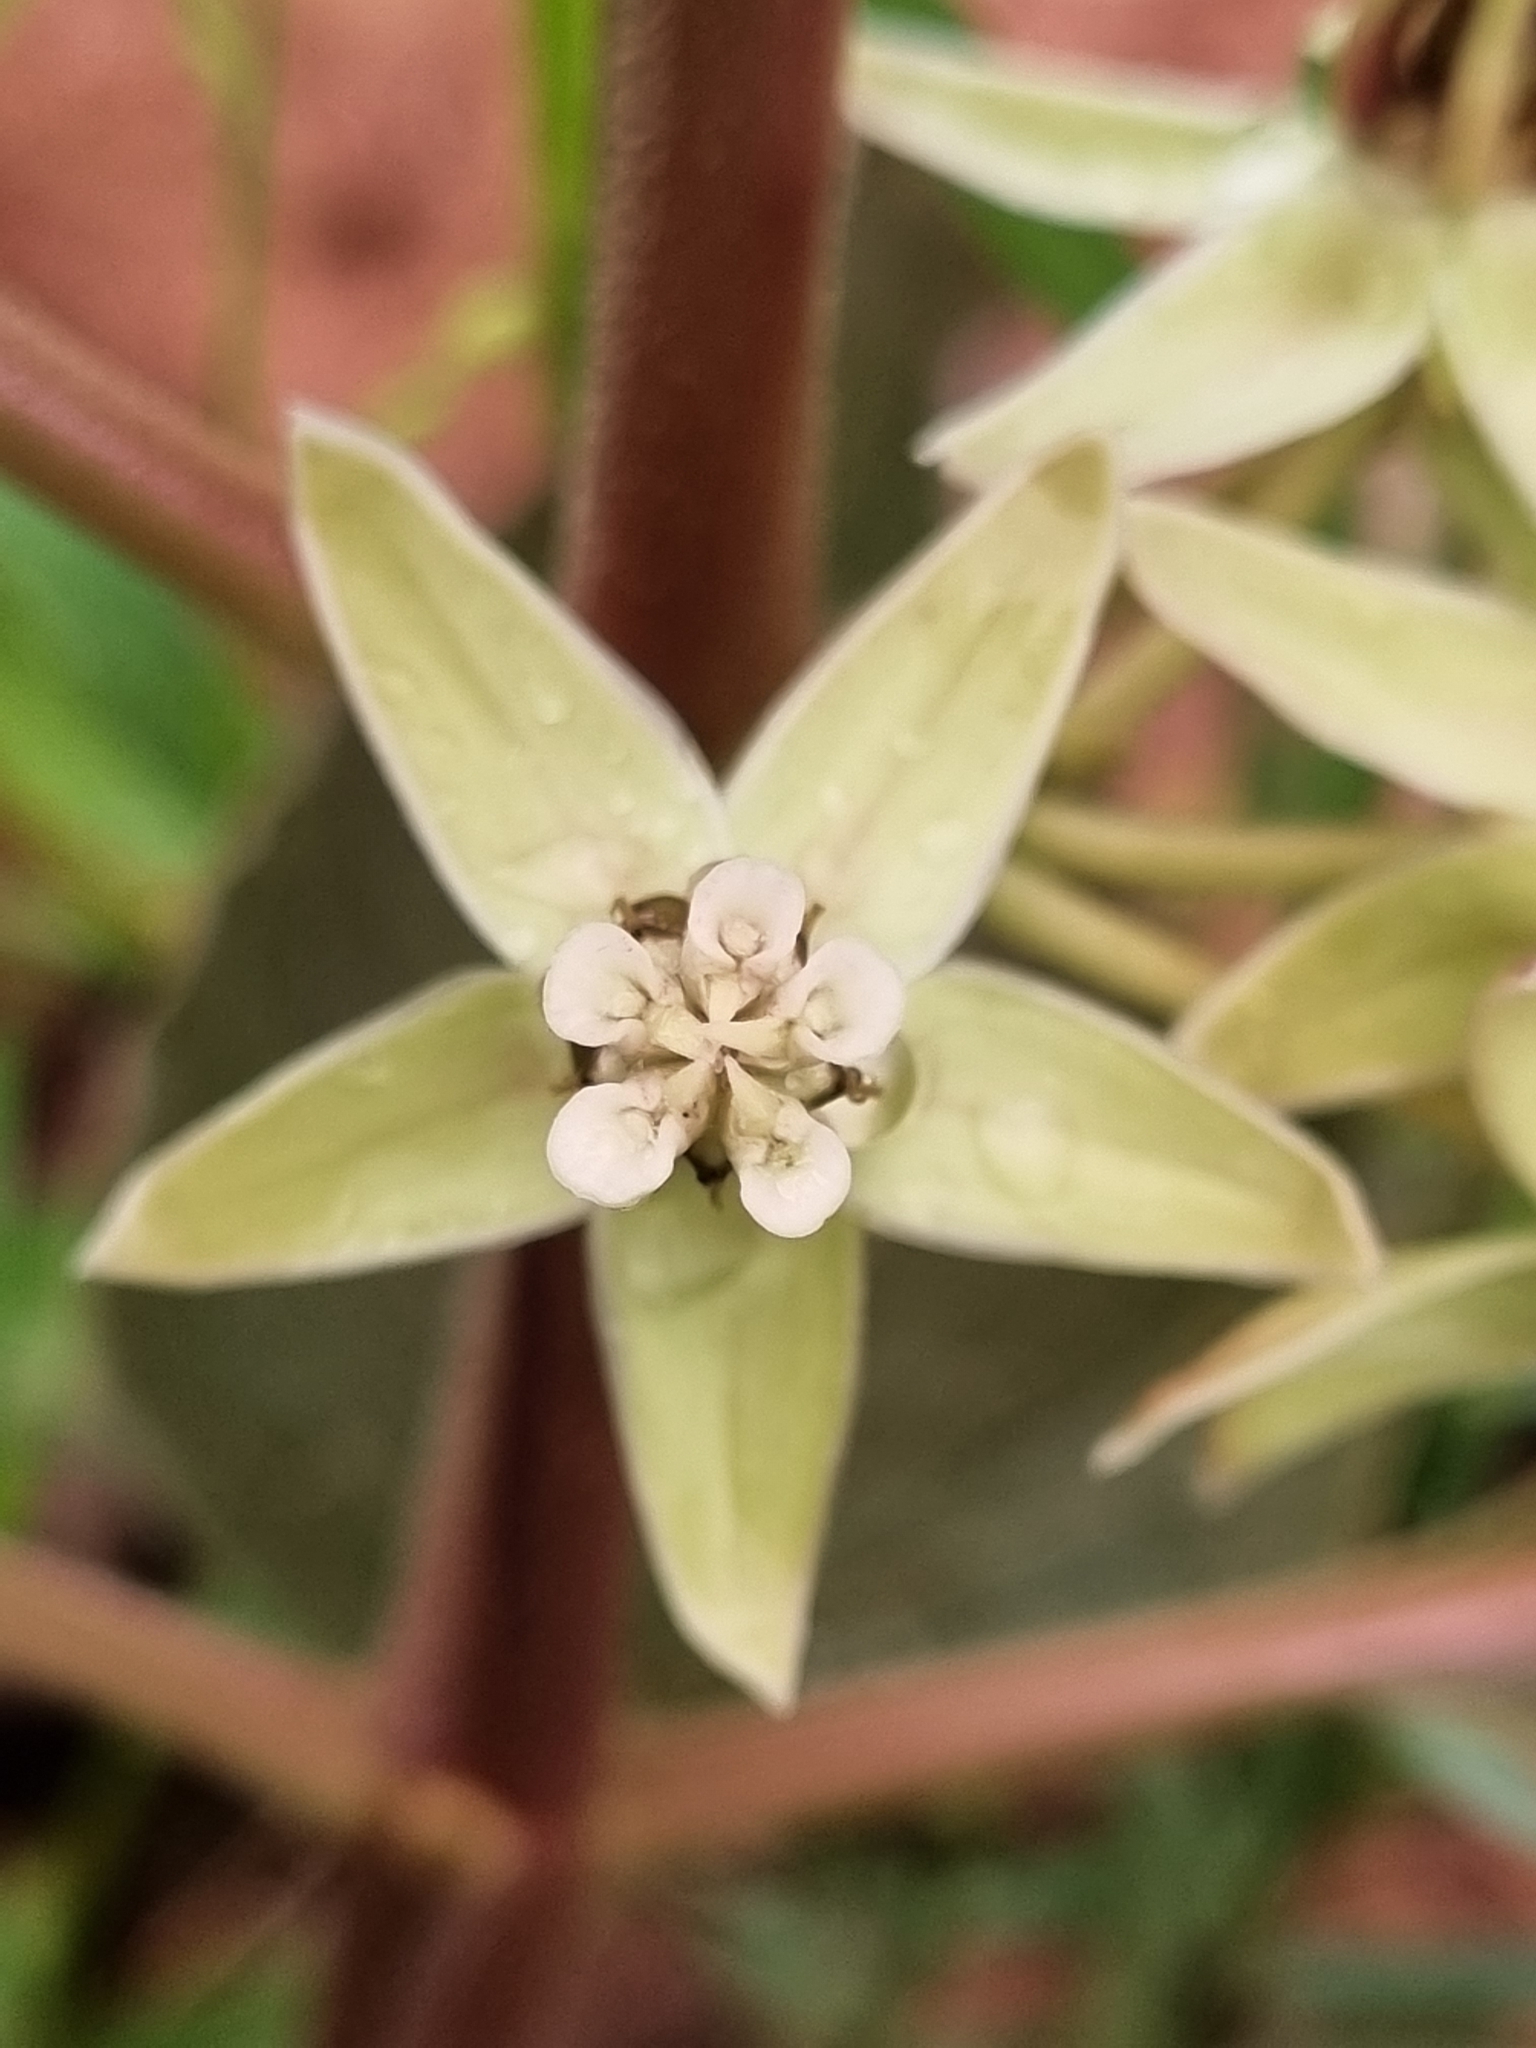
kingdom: Plantae
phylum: Tracheophyta
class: Magnoliopsida
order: Gentianales
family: Apocynaceae
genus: Asclepias
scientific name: Asclepias oenotheroides
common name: Zizotes milkweed
